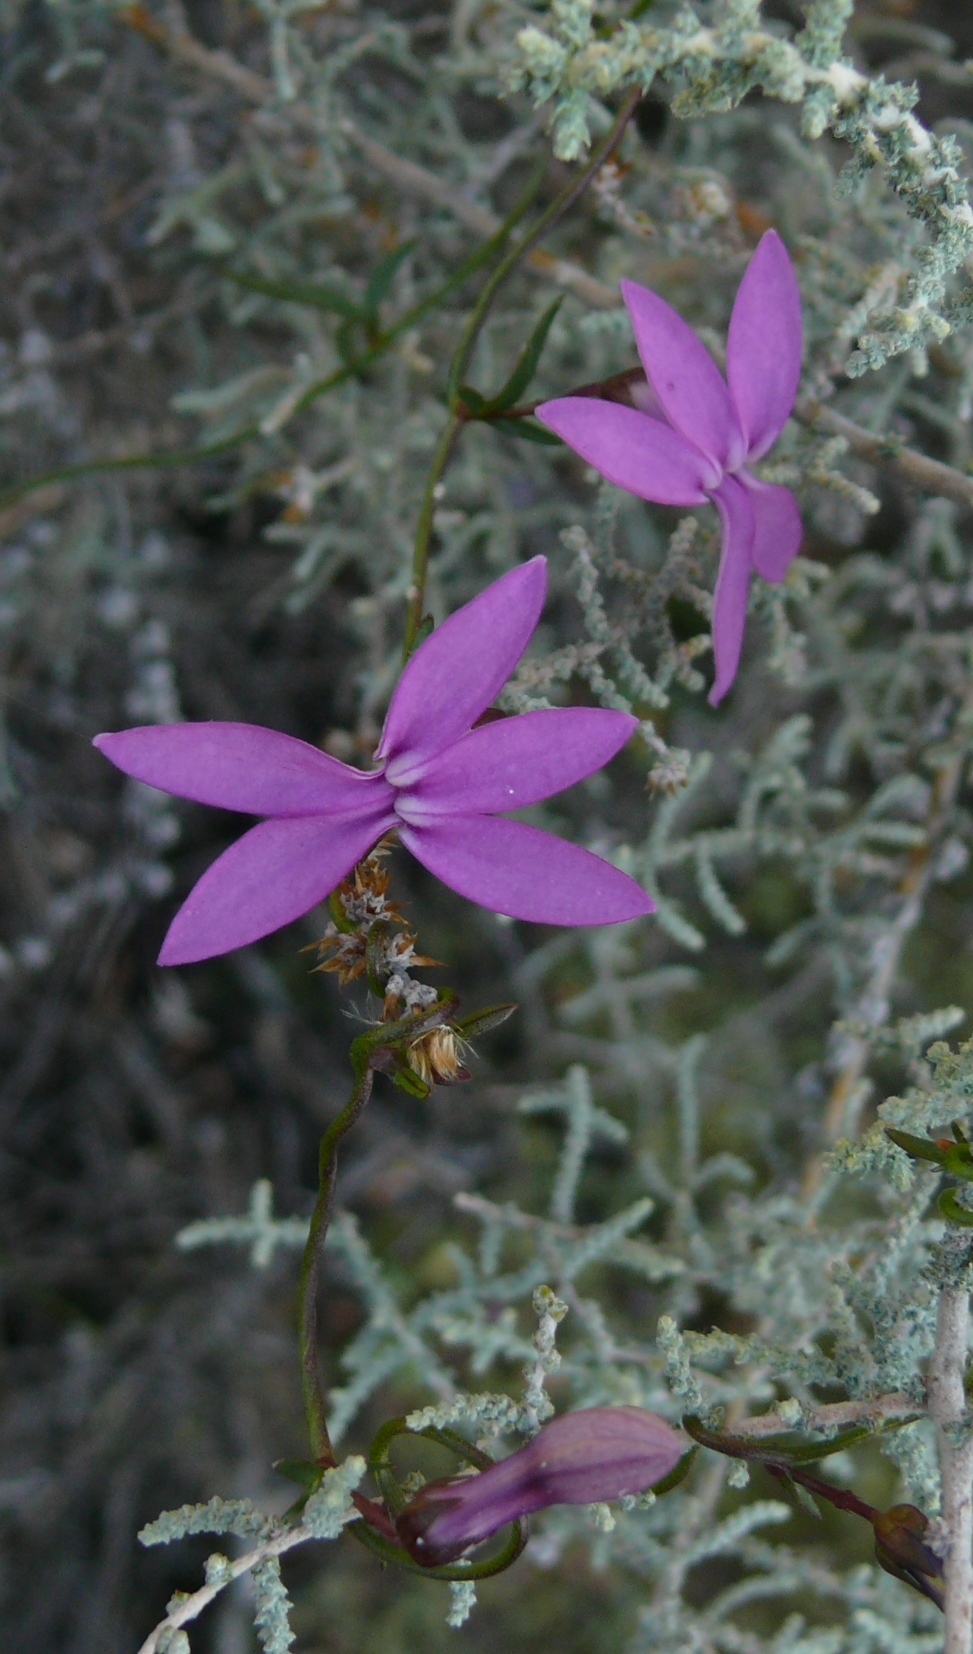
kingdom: Plantae
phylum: Tracheophyta
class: Magnoliopsida
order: Asterales
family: Campanulaceae
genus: Cyphia
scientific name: Cyphia digitata
